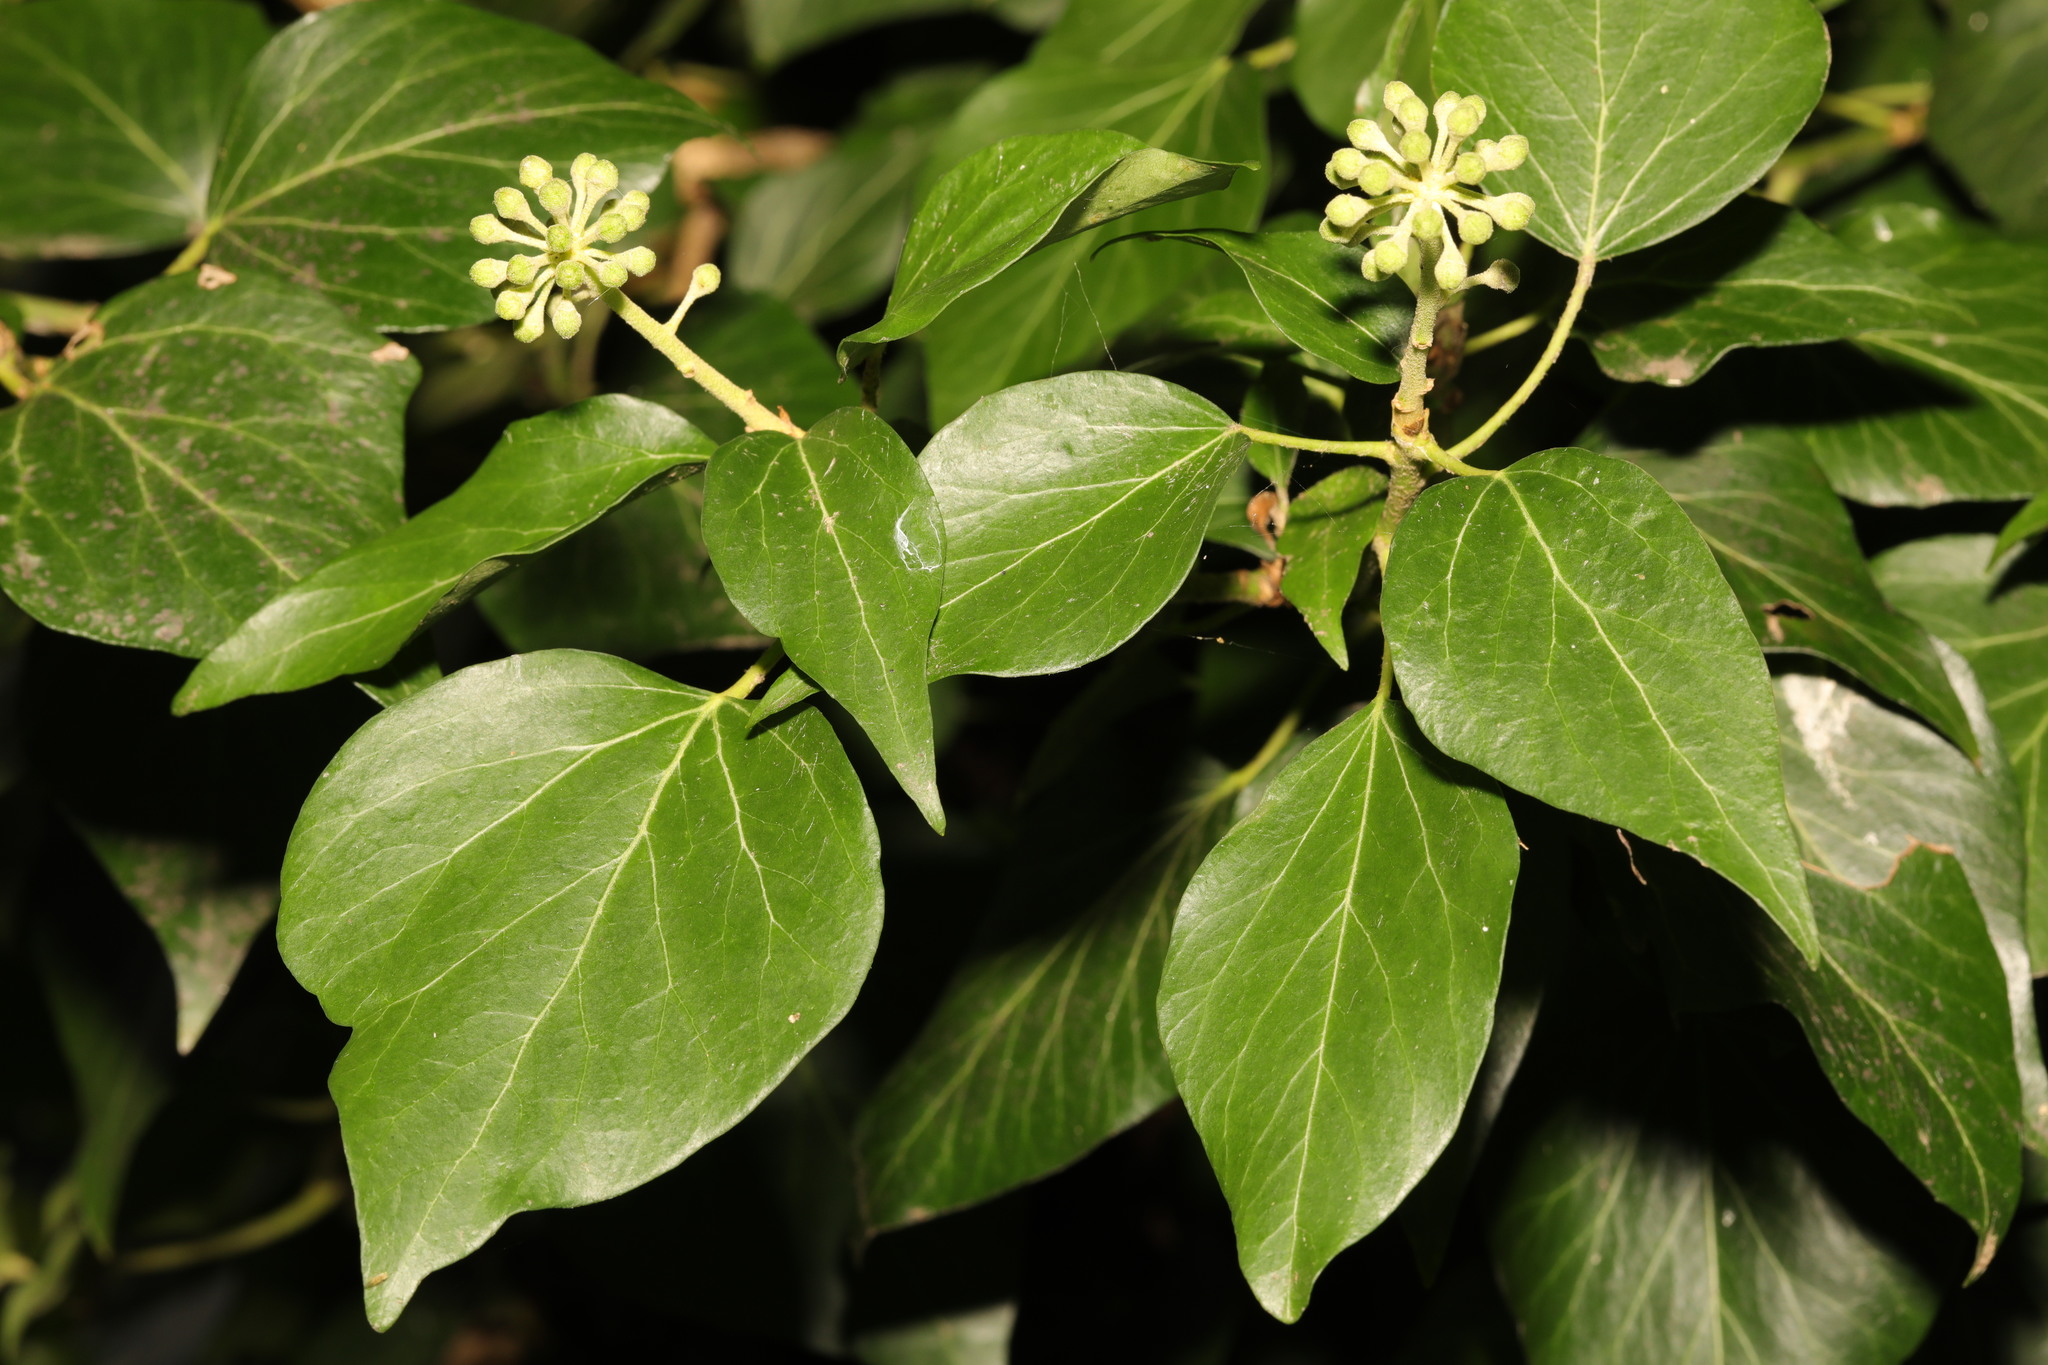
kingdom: Plantae
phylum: Tracheophyta
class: Magnoliopsida
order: Apiales
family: Araliaceae
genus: Hedera
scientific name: Hedera helix
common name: Ivy
